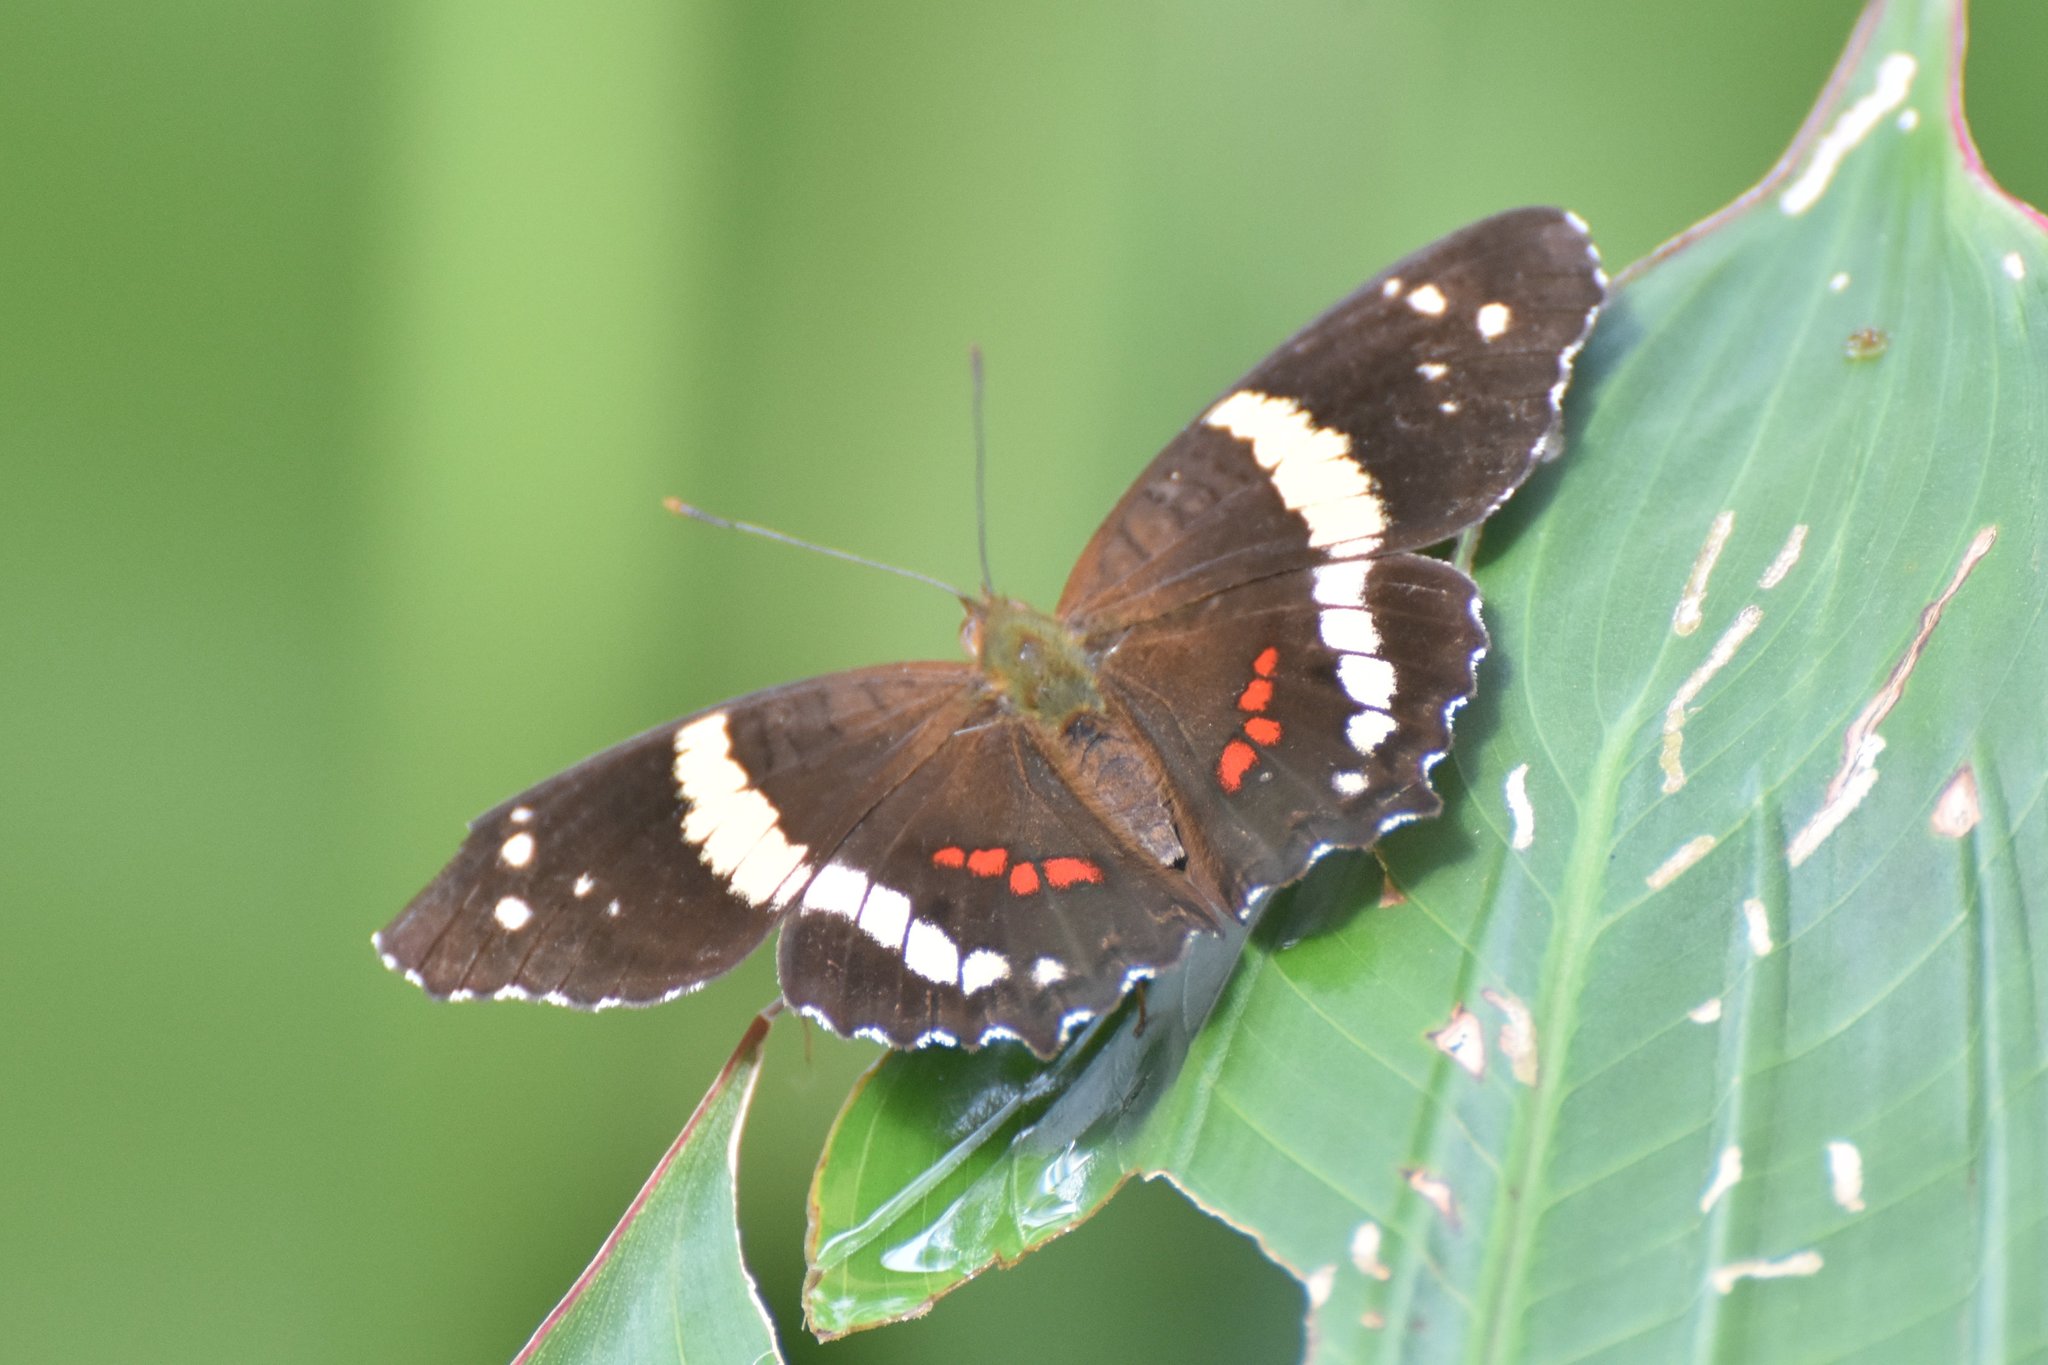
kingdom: Animalia
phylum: Arthropoda
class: Insecta
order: Lepidoptera
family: Nymphalidae
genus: Anartia
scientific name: Anartia fatima
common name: Banded peacock
